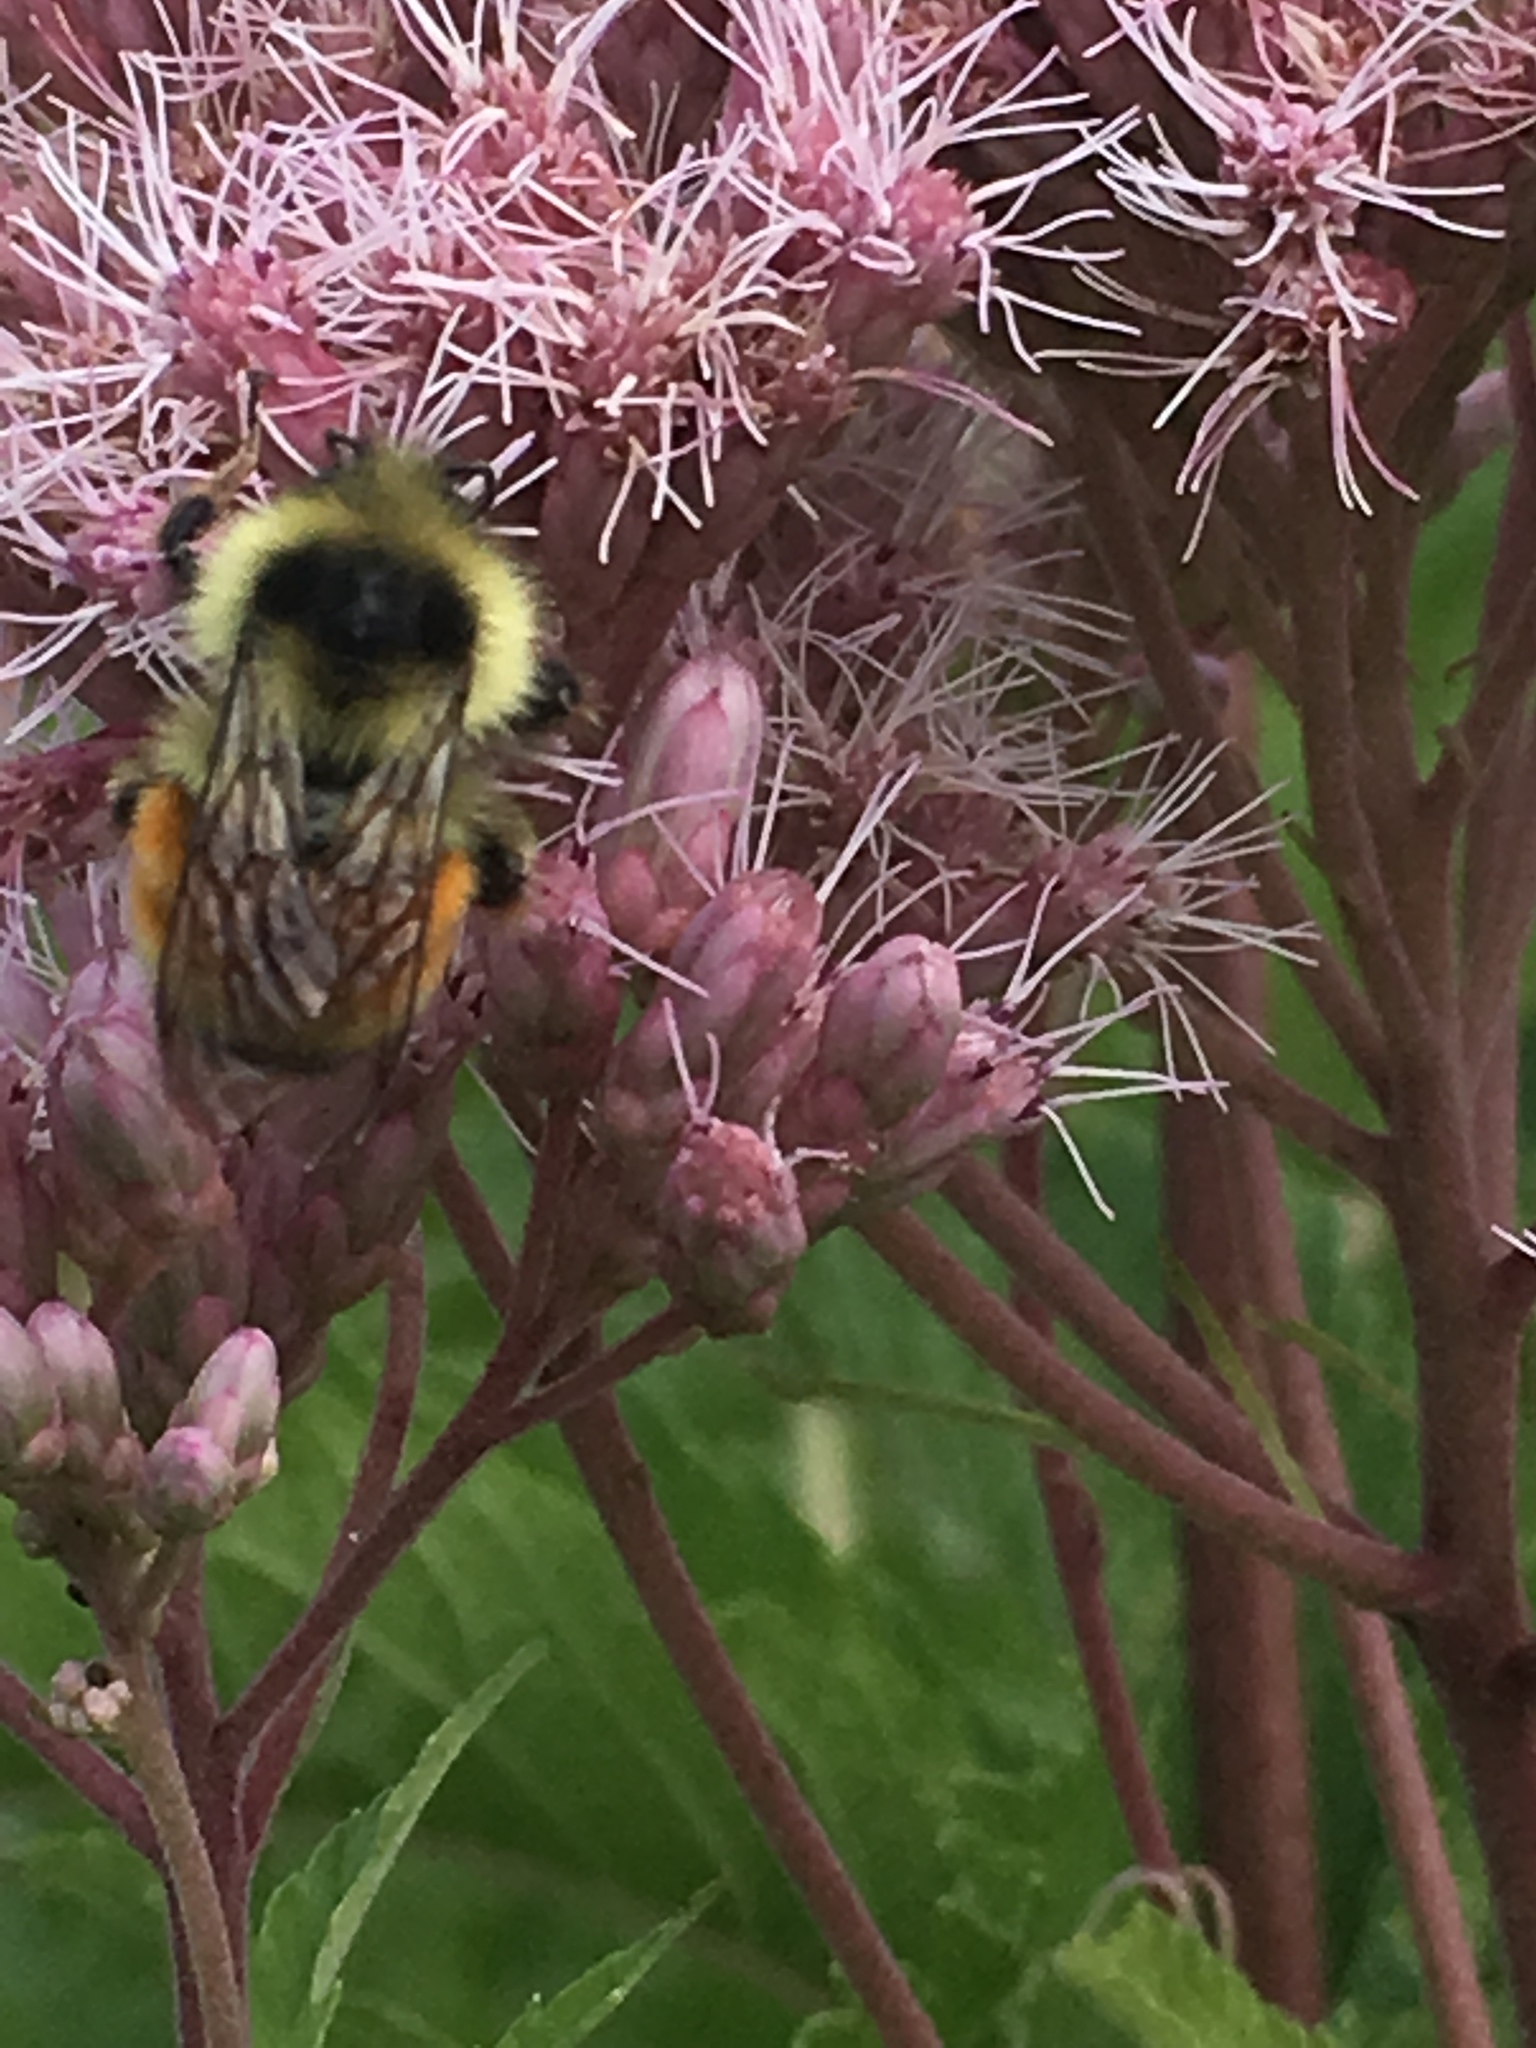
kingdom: Animalia
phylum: Arthropoda
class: Insecta
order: Hymenoptera
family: Apidae
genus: Bombus
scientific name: Bombus ternarius
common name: Tri-colored bumble bee
